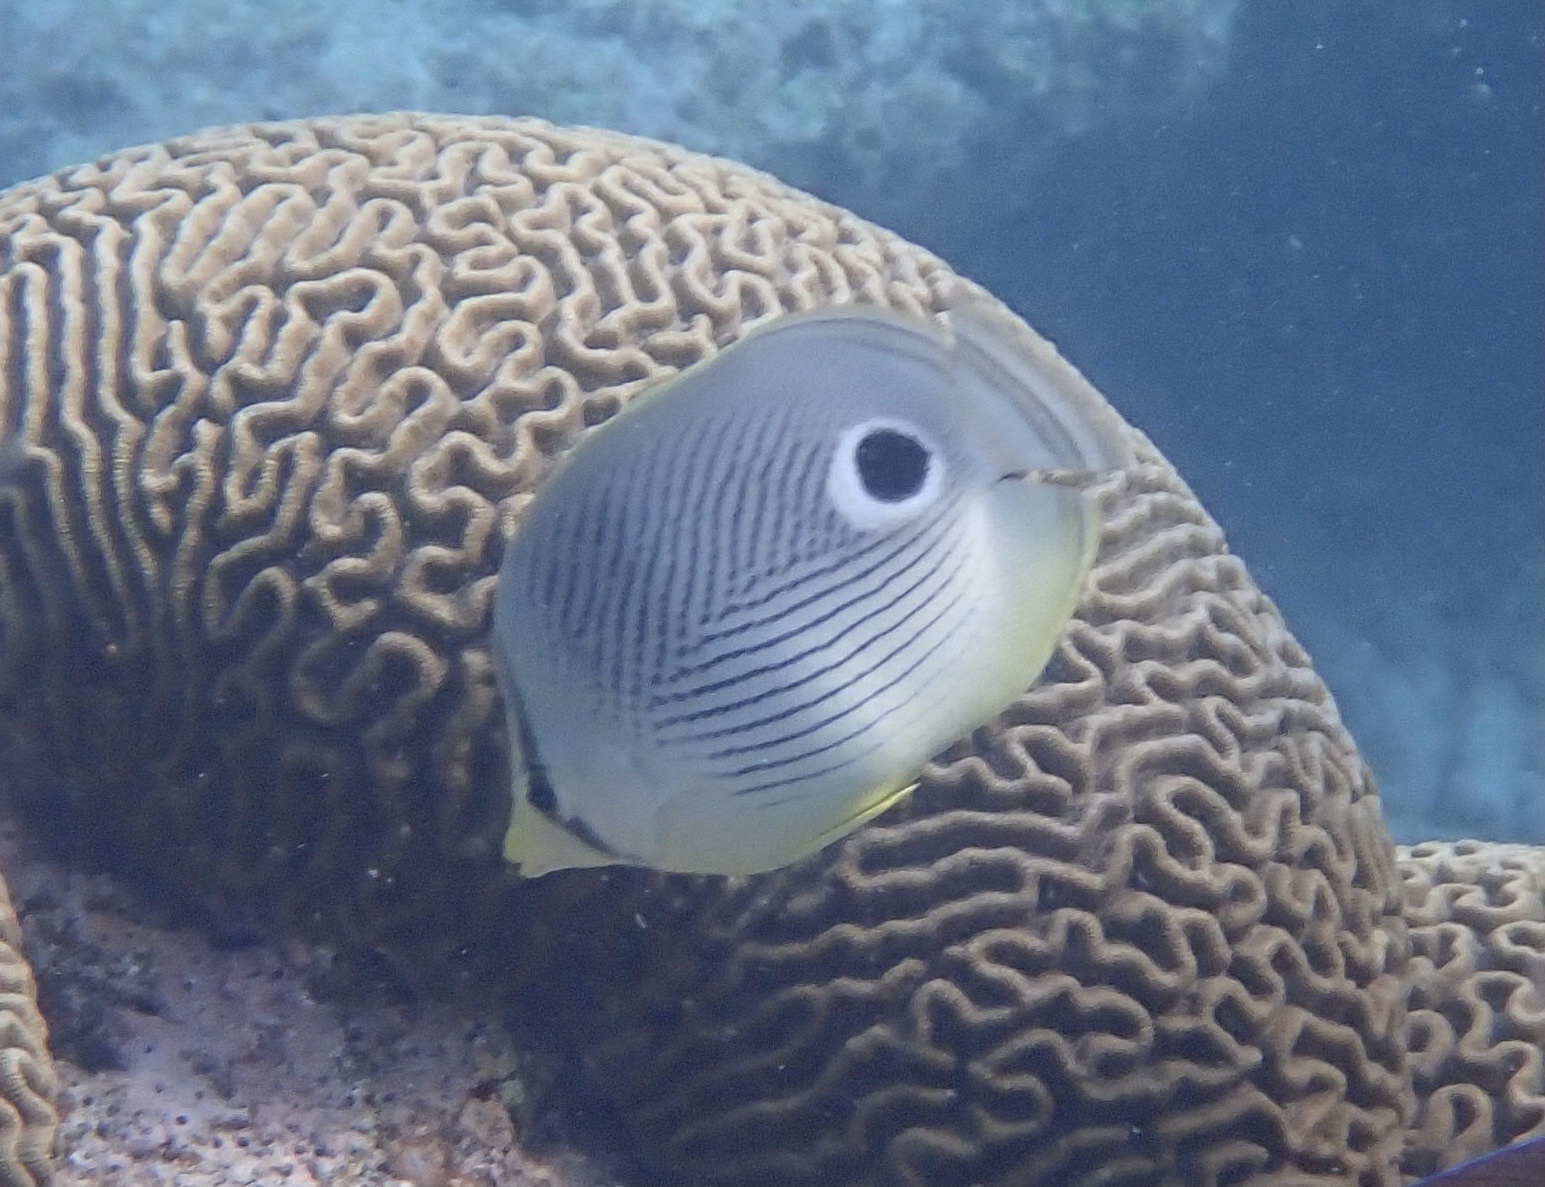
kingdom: Animalia
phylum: Chordata
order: Perciformes
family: Chaetodontidae
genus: Chaetodon
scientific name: Chaetodon capistratus
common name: Kete
